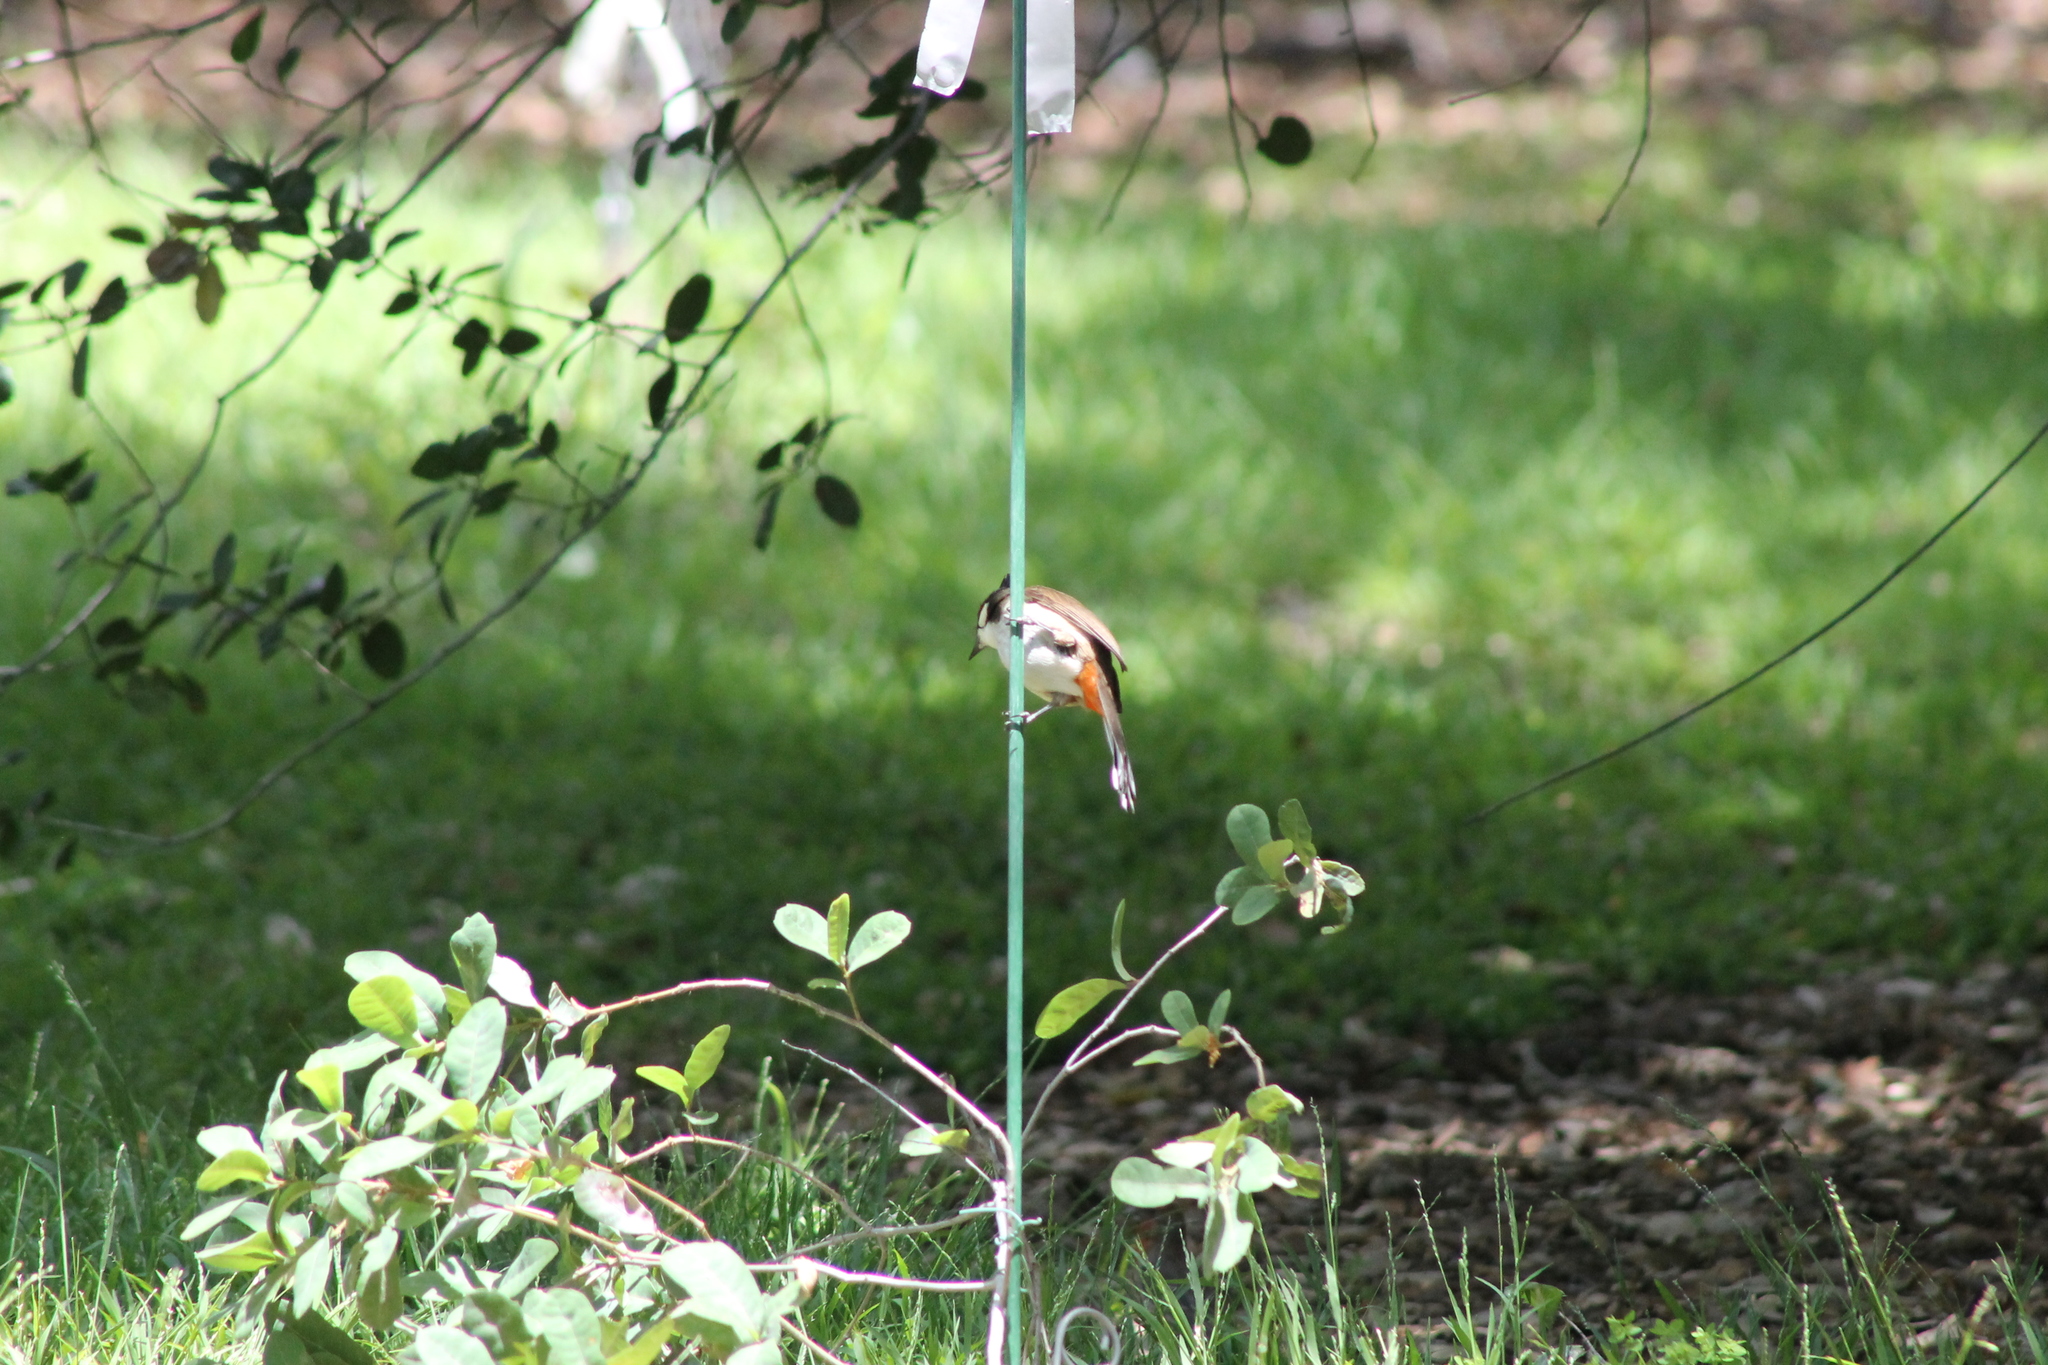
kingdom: Animalia
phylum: Chordata
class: Aves
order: Passeriformes
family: Pycnonotidae
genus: Pycnonotus
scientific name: Pycnonotus jocosus
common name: Red-whiskered bulbul
